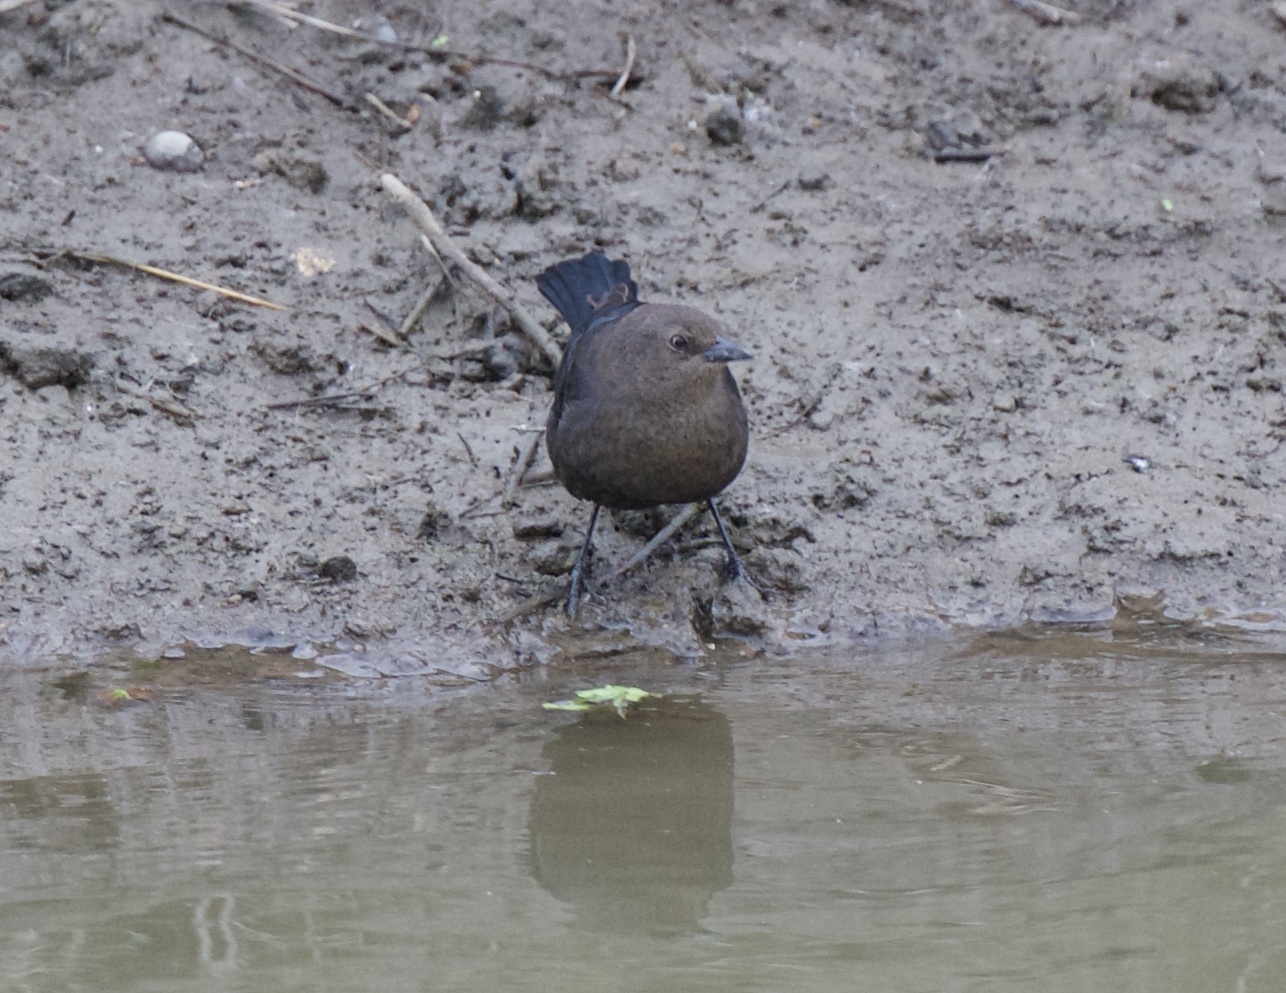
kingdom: Animalia
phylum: Chordata
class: Aves
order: Passeriformes
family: Icteridae
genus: Euphagus
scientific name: Euphagus cyanocephalus
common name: Brewer's blackbird
